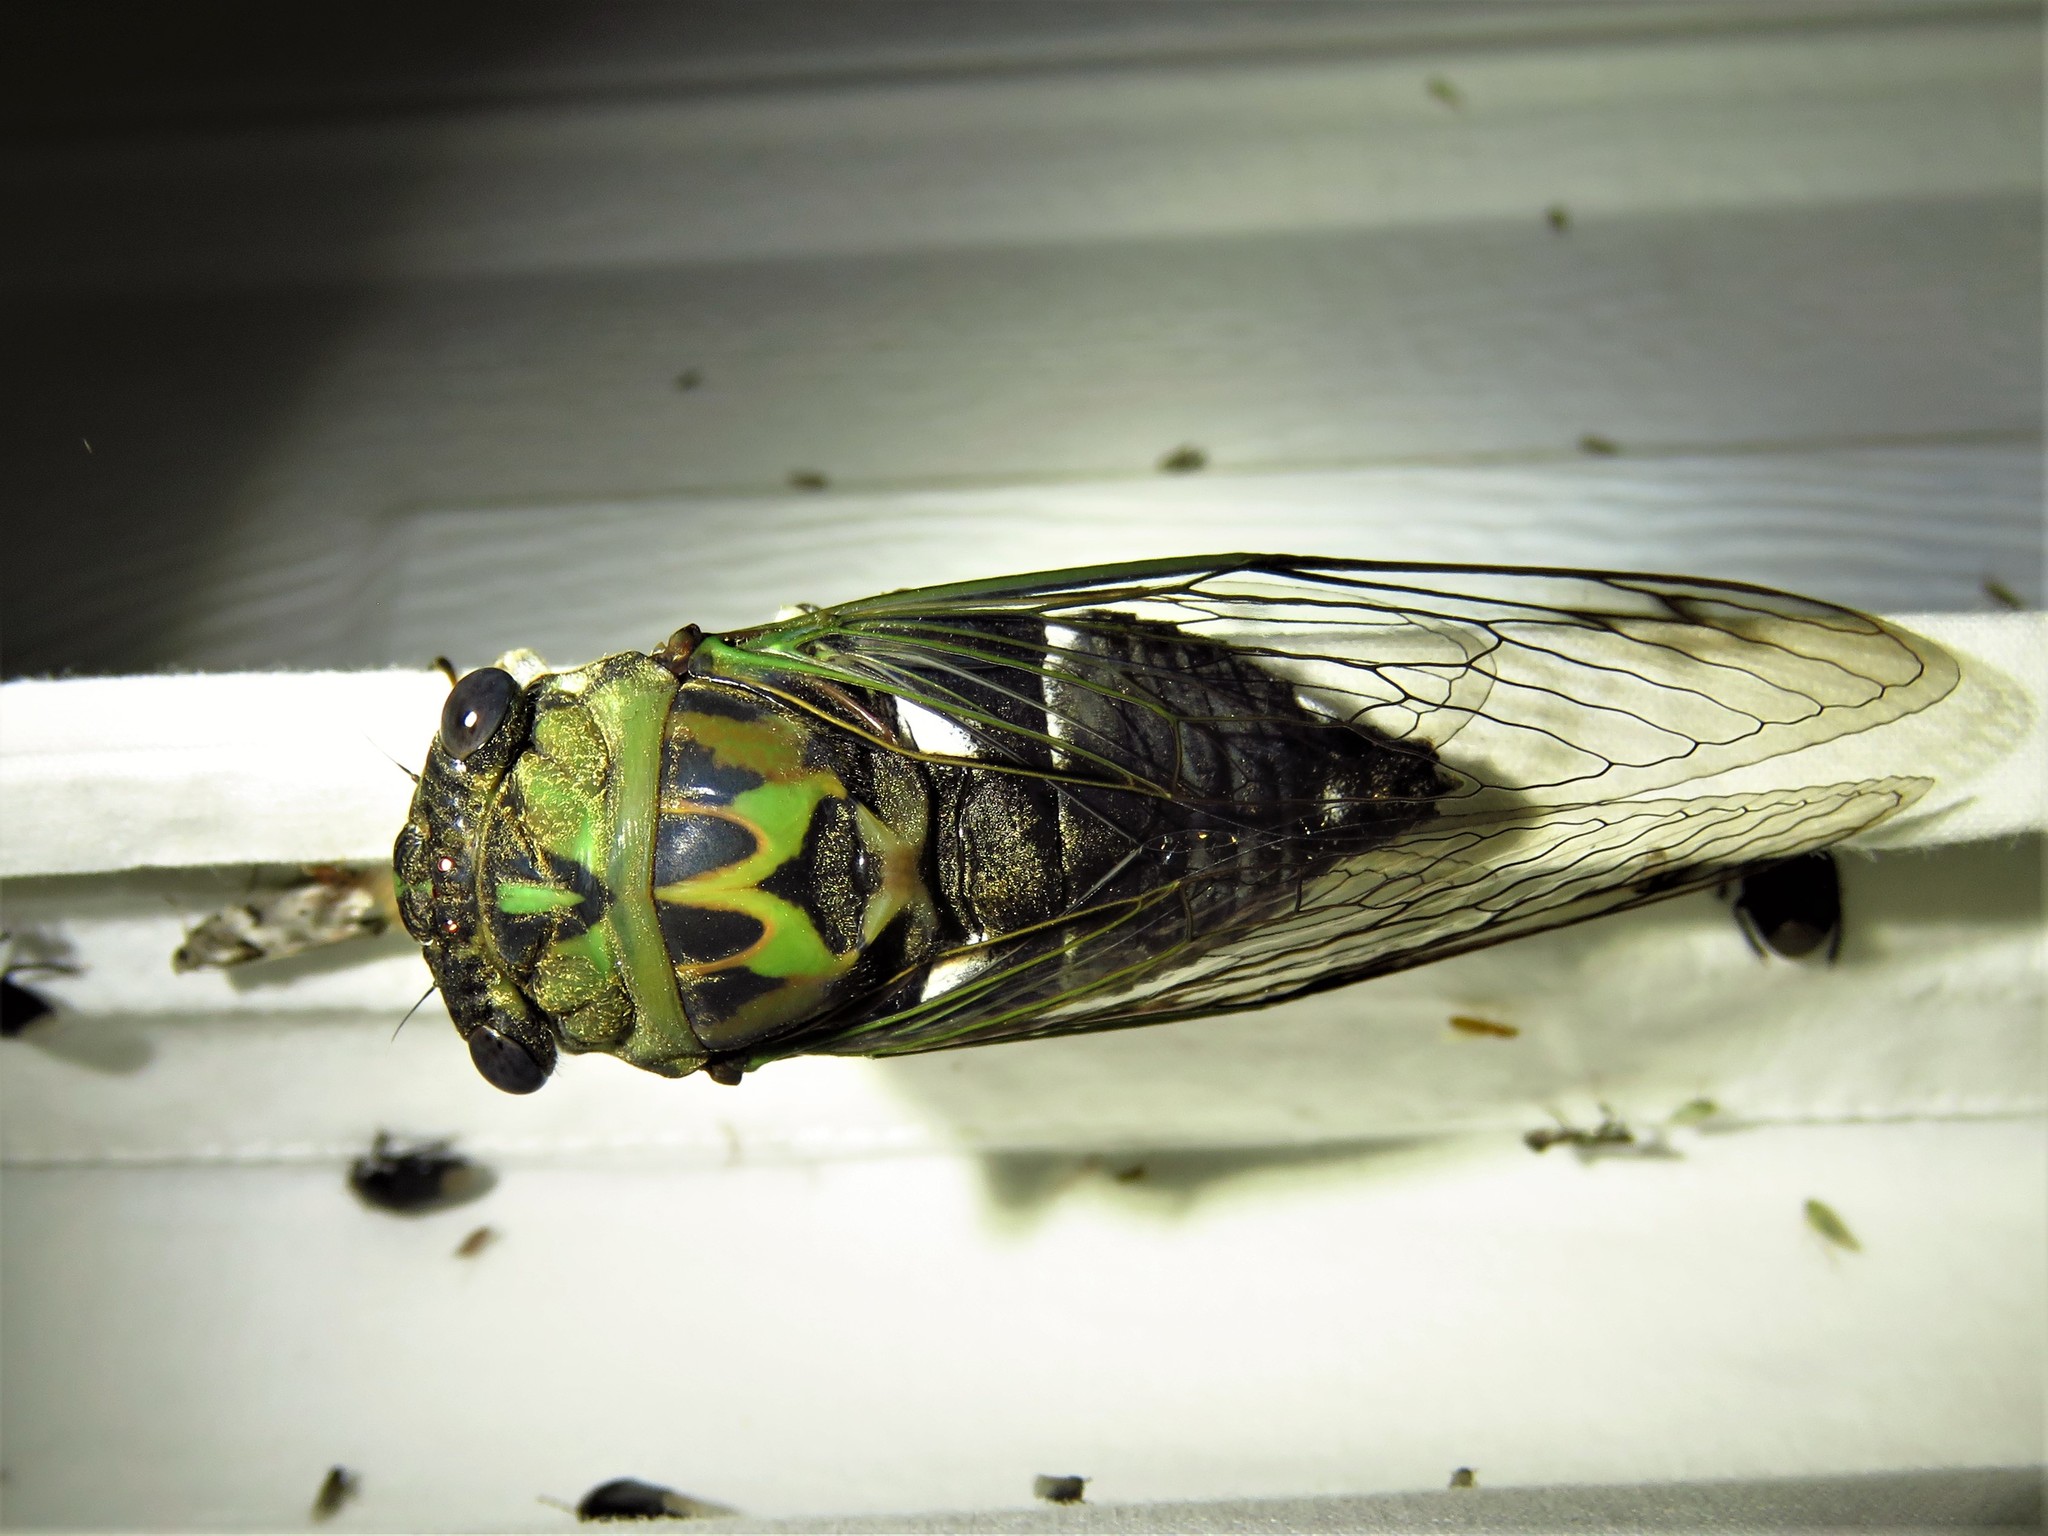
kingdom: Animalia
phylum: Arthropoda
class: Insecta
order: Hemiptera
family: Cicadidae
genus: Neotibicen
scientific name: Neotibicen pruinosus
